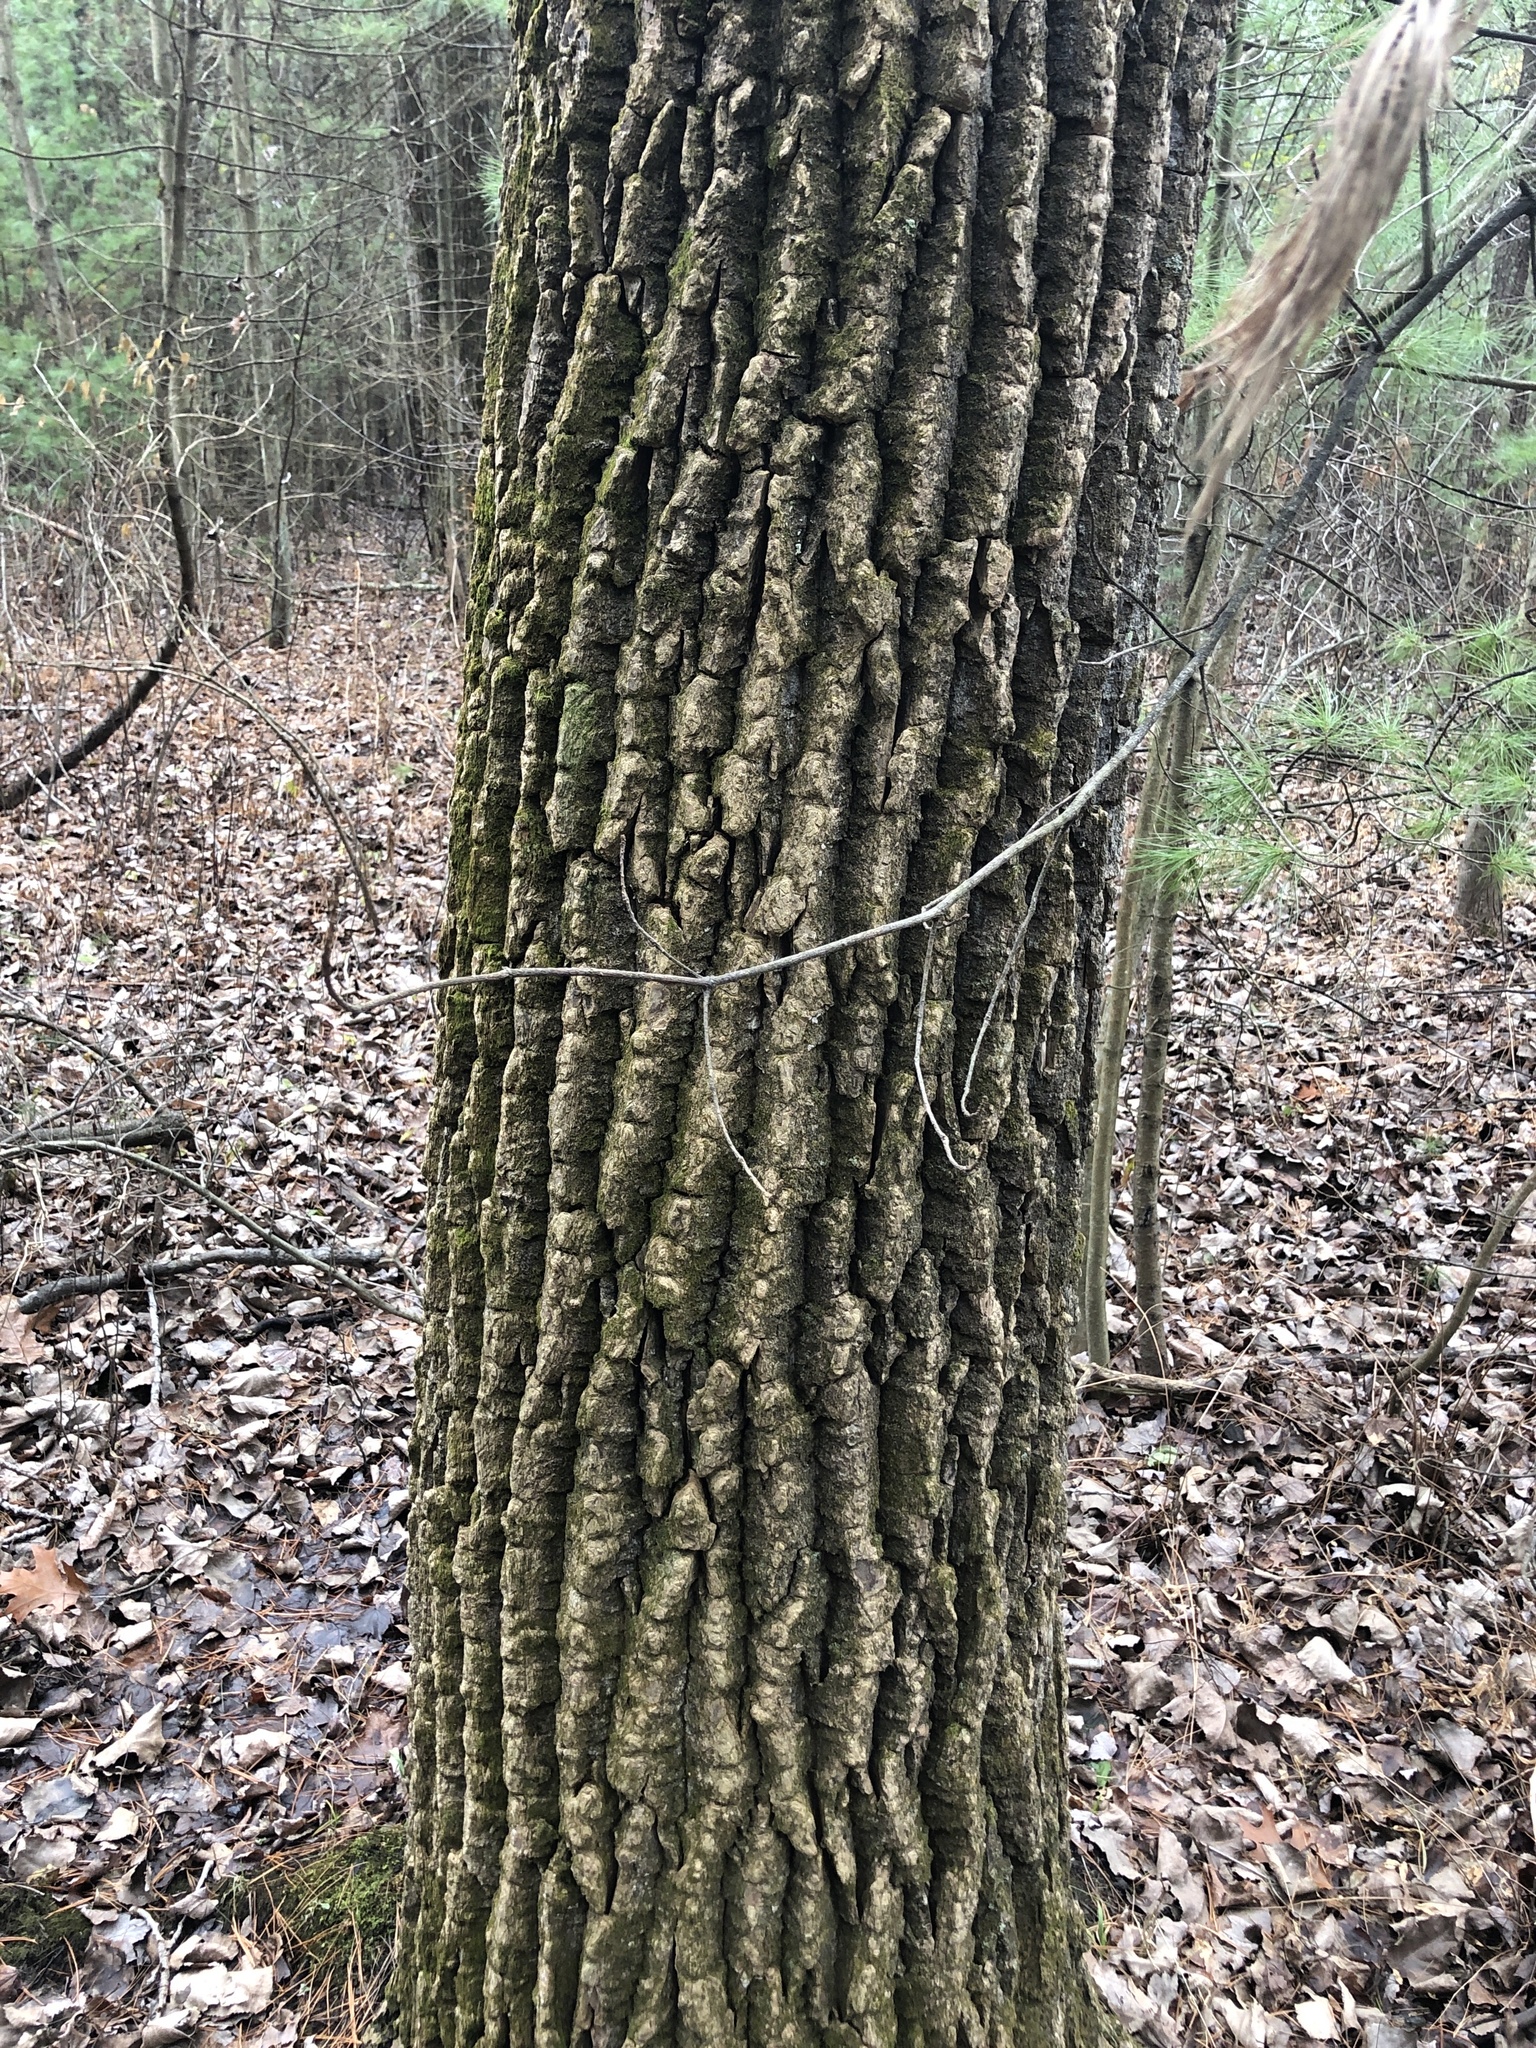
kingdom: Plantae
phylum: Tracheophyta
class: Magnoliopsida
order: Malpighiales
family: Salicaceae
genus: Populus
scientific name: Populus deltoides
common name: Eastern cottonwood
